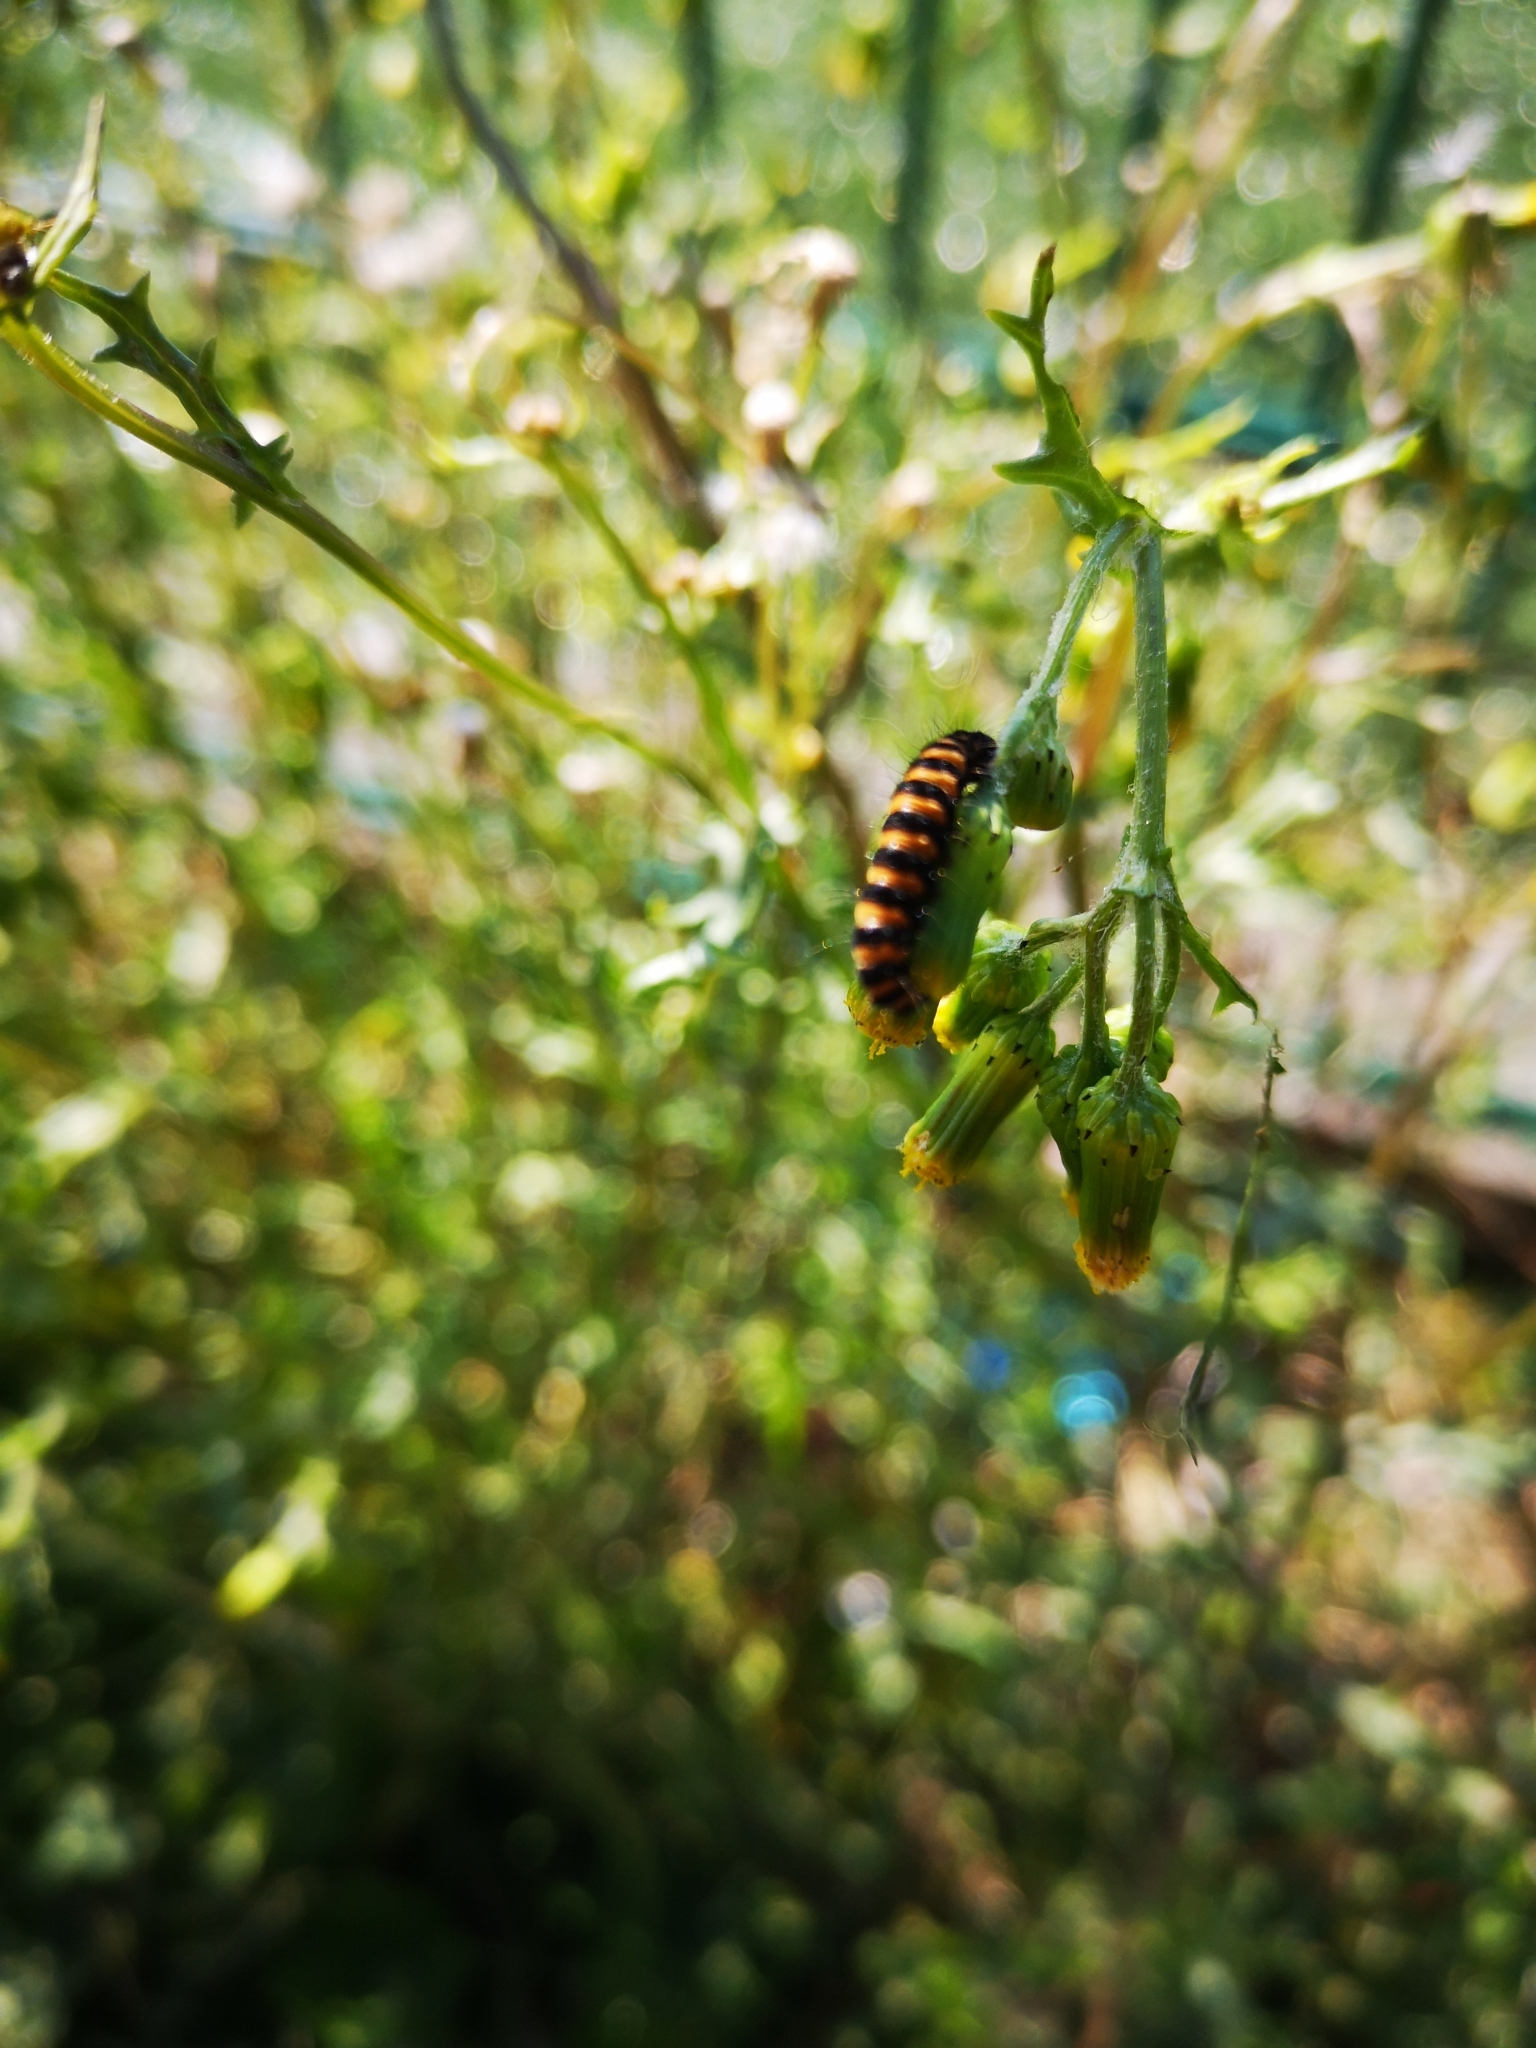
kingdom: Animalia
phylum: Arthropoda
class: Insecta
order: Lepidoptera
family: Erebidae
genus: Tyria
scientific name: Tyria jacobaeae
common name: Cinnabar
